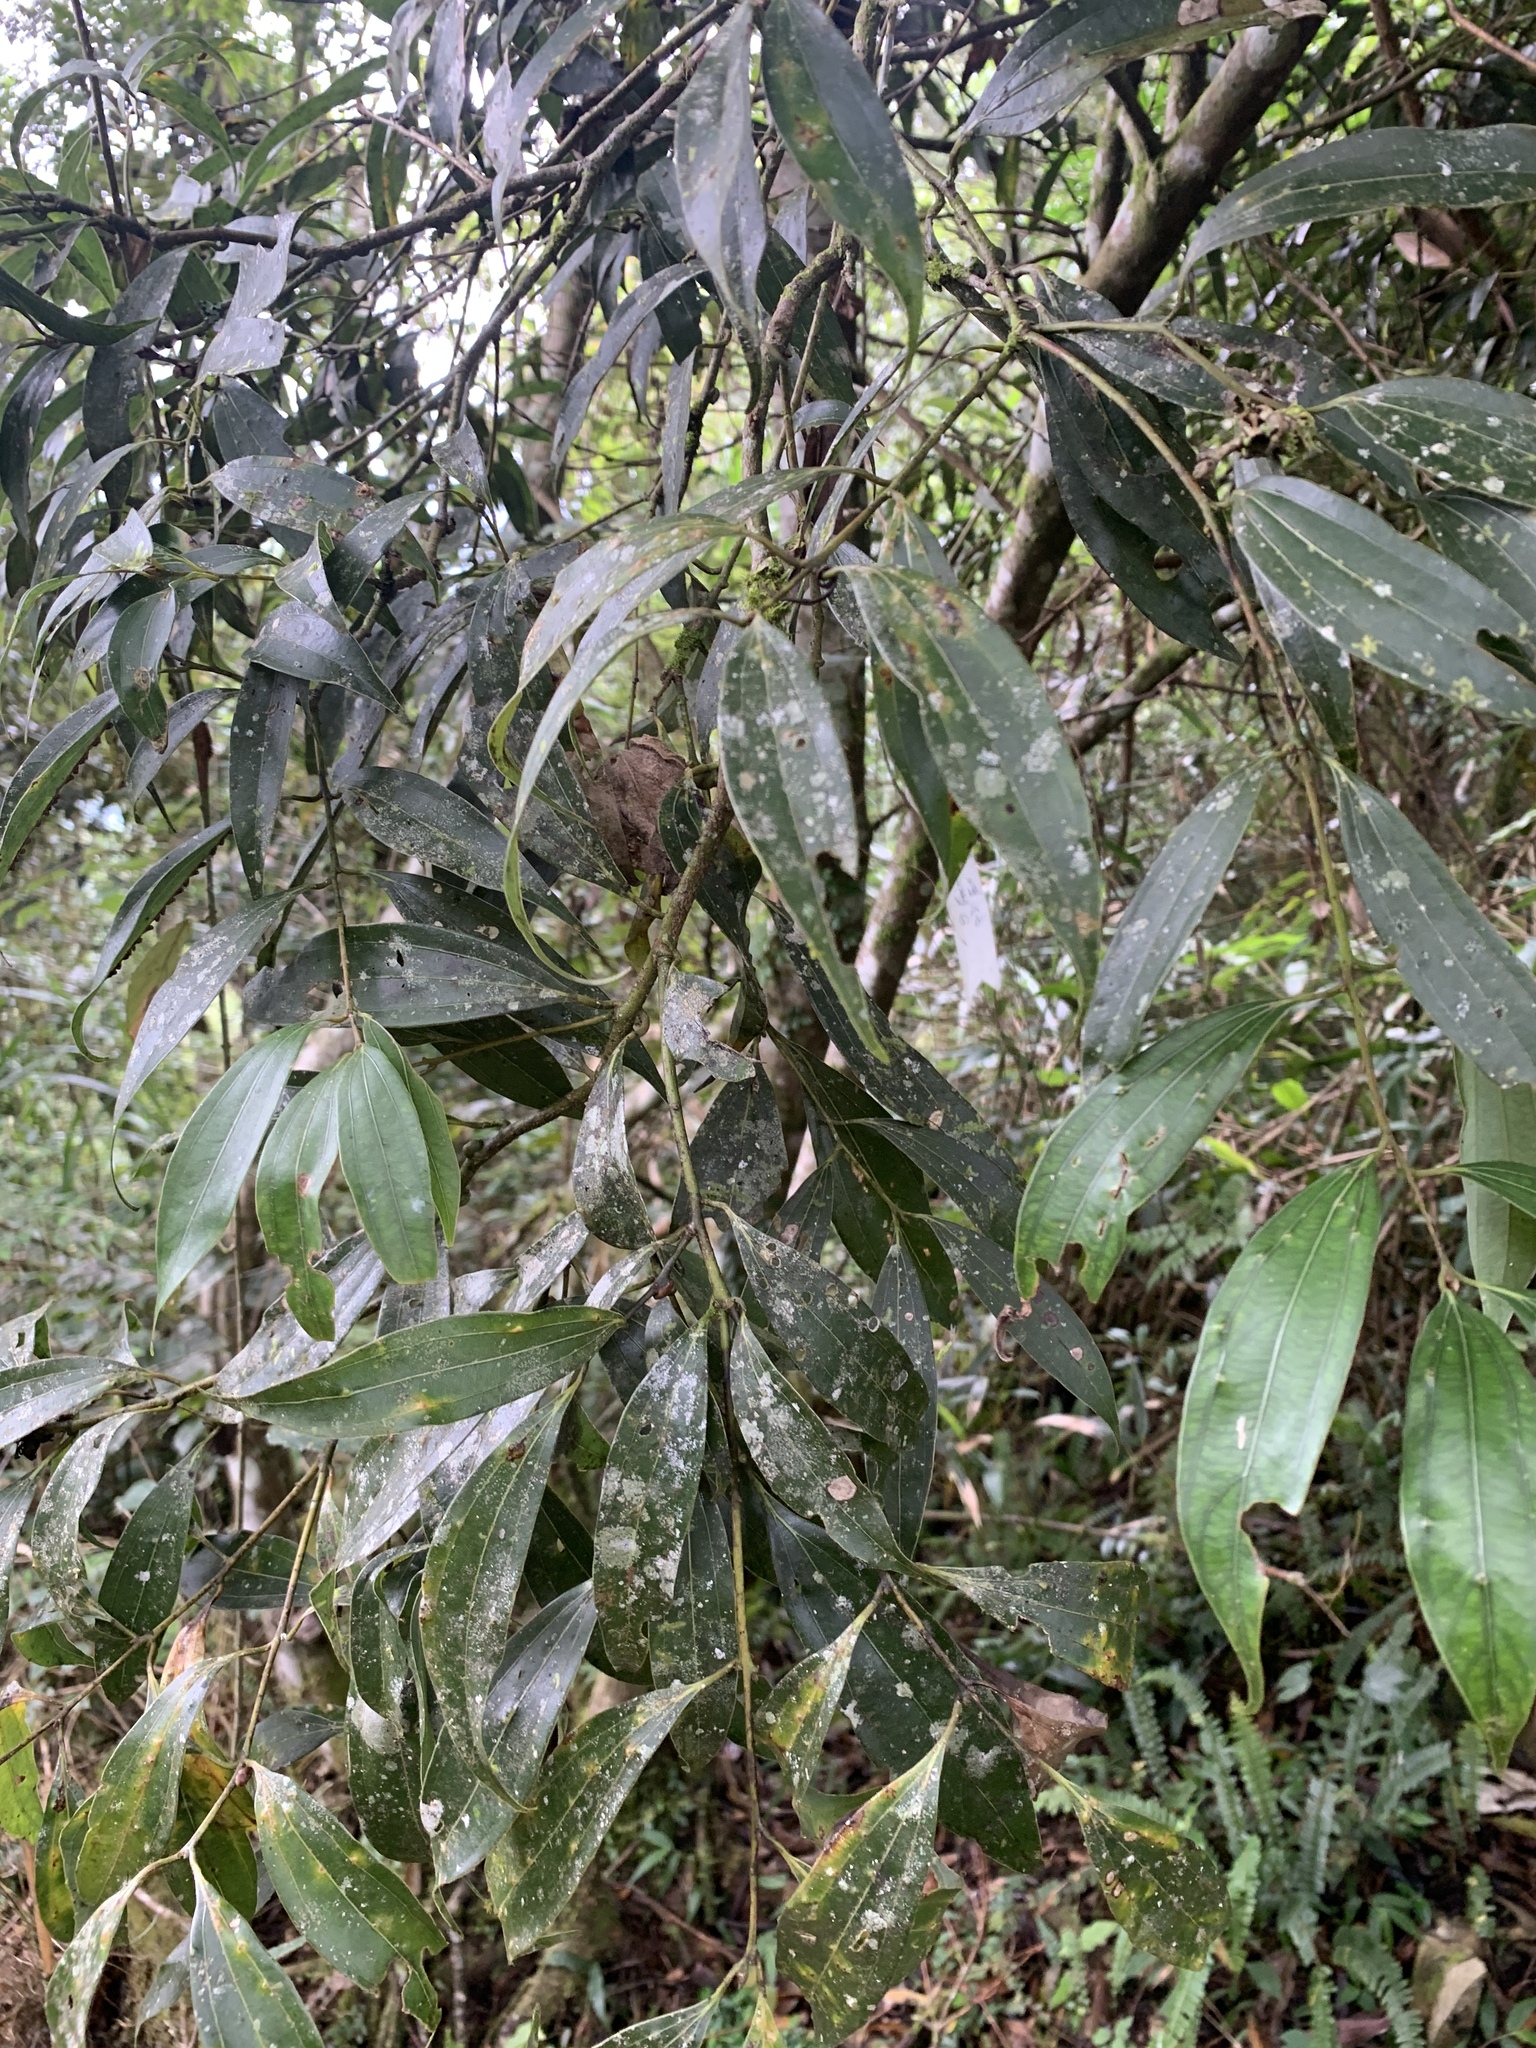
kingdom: Plantae
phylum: Tracheophyta
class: Magnoliopsida
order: Laurales
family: Lauraceae
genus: Cinnamomum
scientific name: Cinnamomum chekiangense
